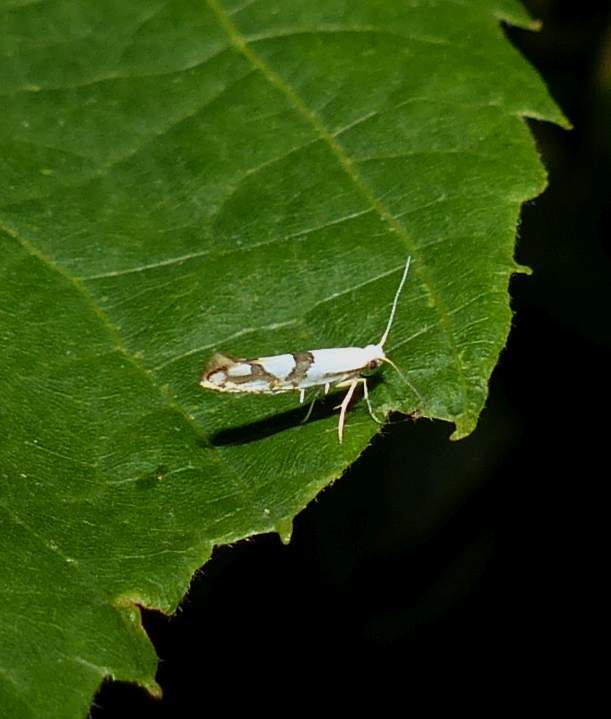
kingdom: Animalia
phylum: Arthropoda
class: Insecta
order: Lepidoptera
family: Argyresthiidae
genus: Argyresthia
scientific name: Argyresthia oreasella
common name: Cherry shoot borer moth
